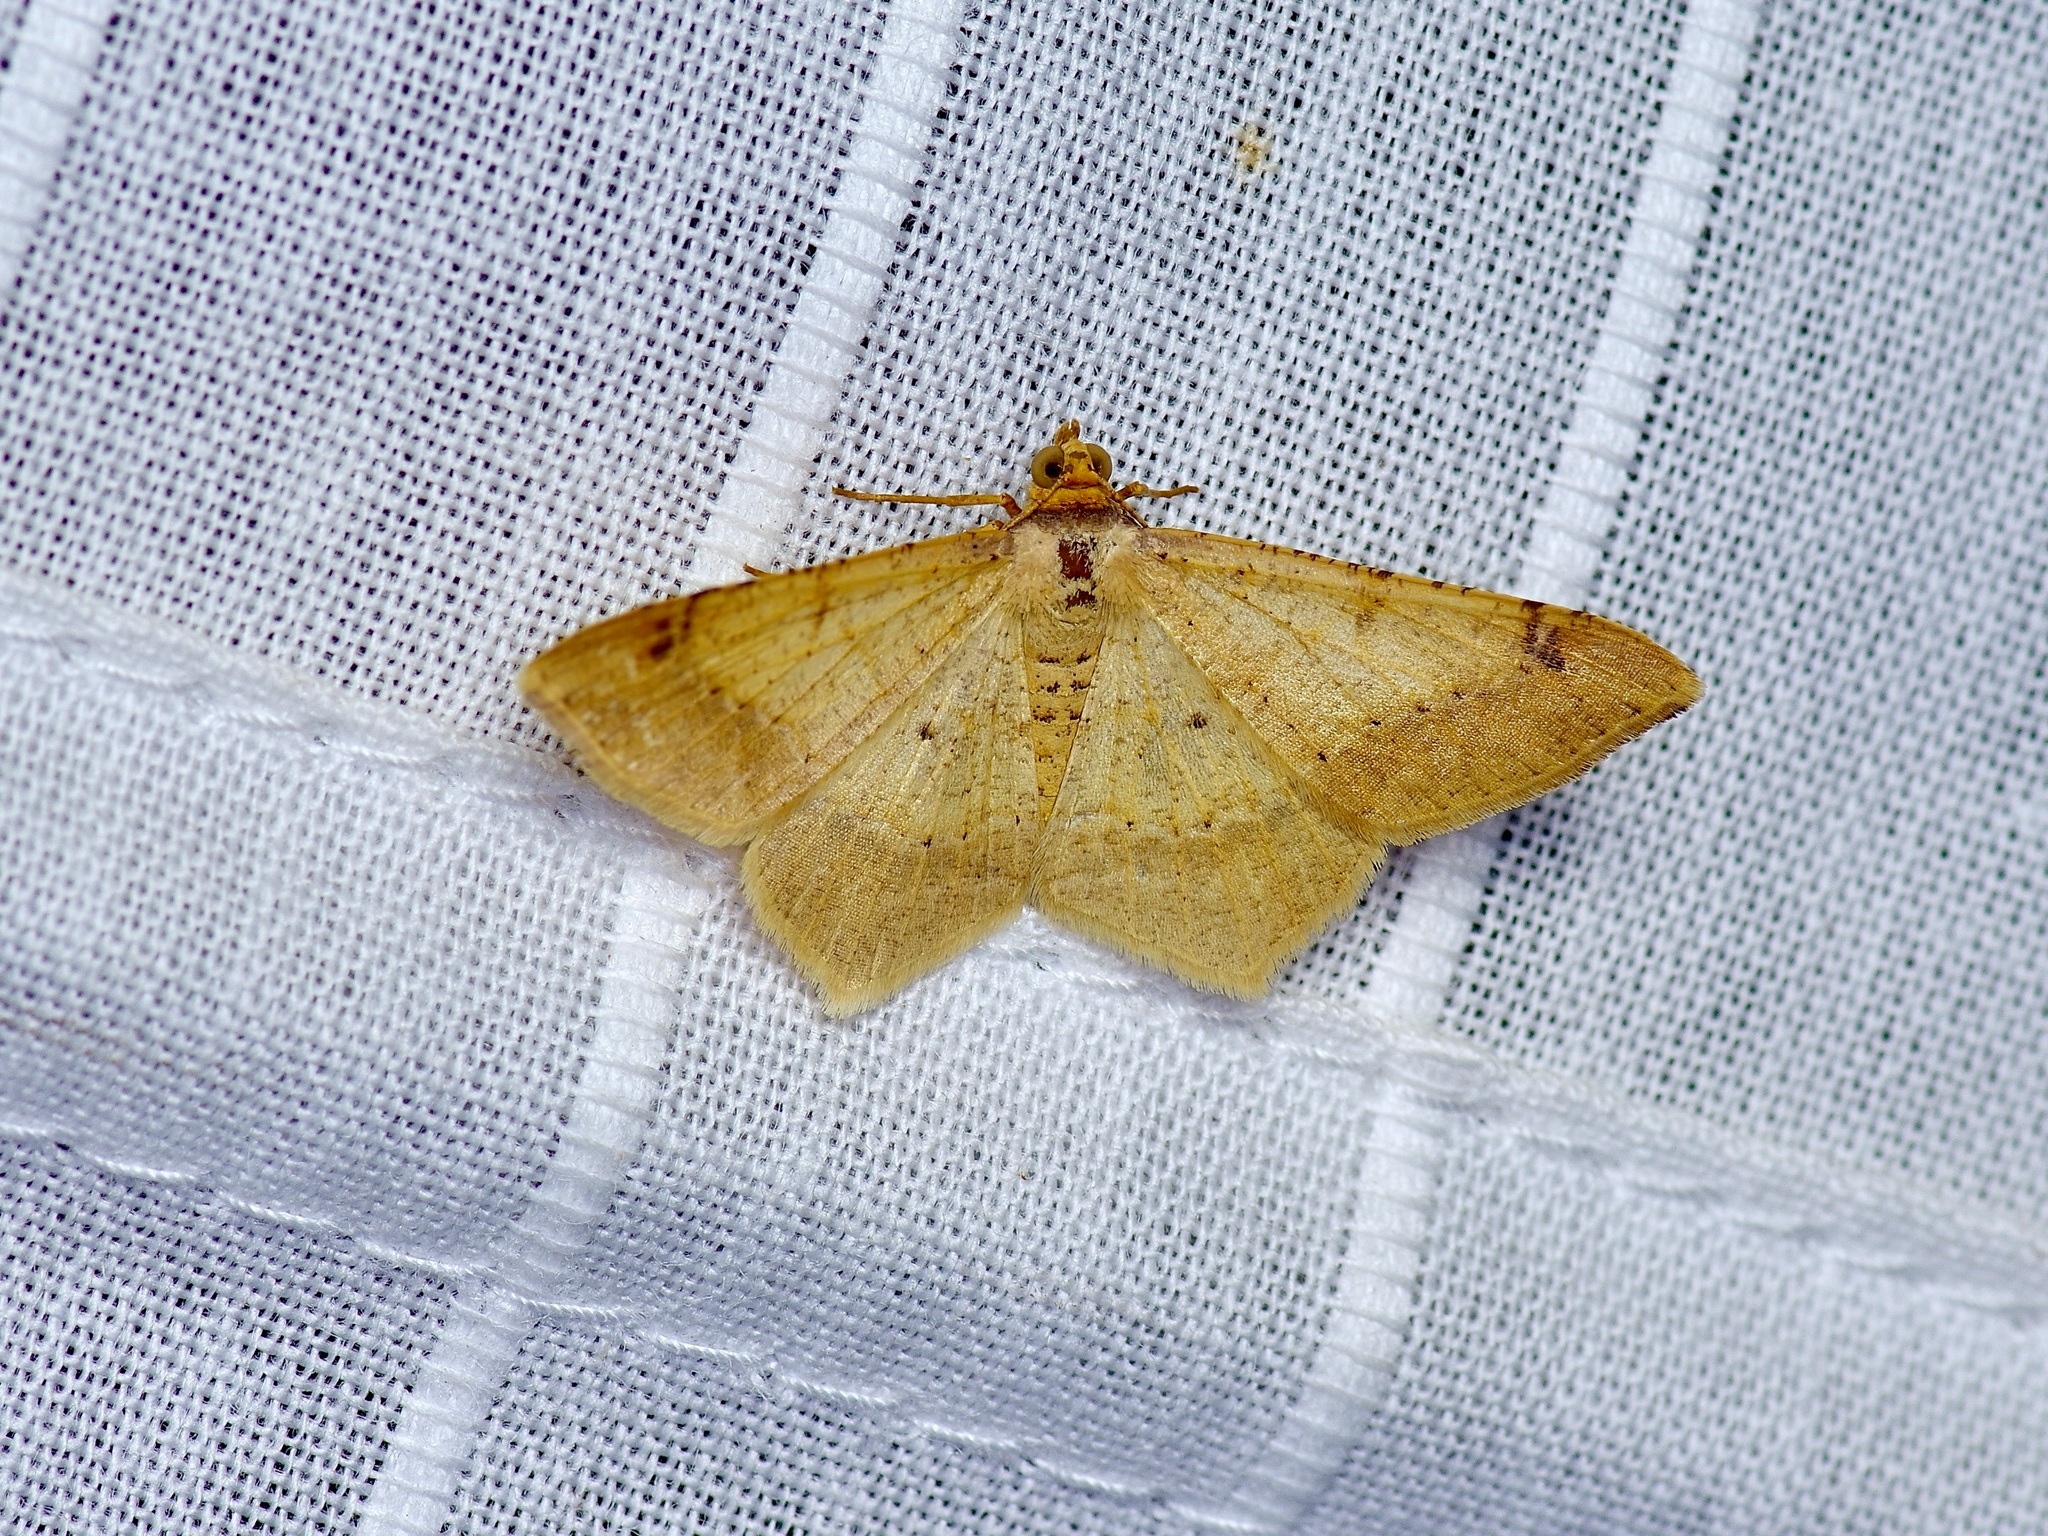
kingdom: Animalia
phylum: Arthropoda
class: Insecta
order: Lepidoptera
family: Geometridae
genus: Macaria
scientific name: Macaria abydata
